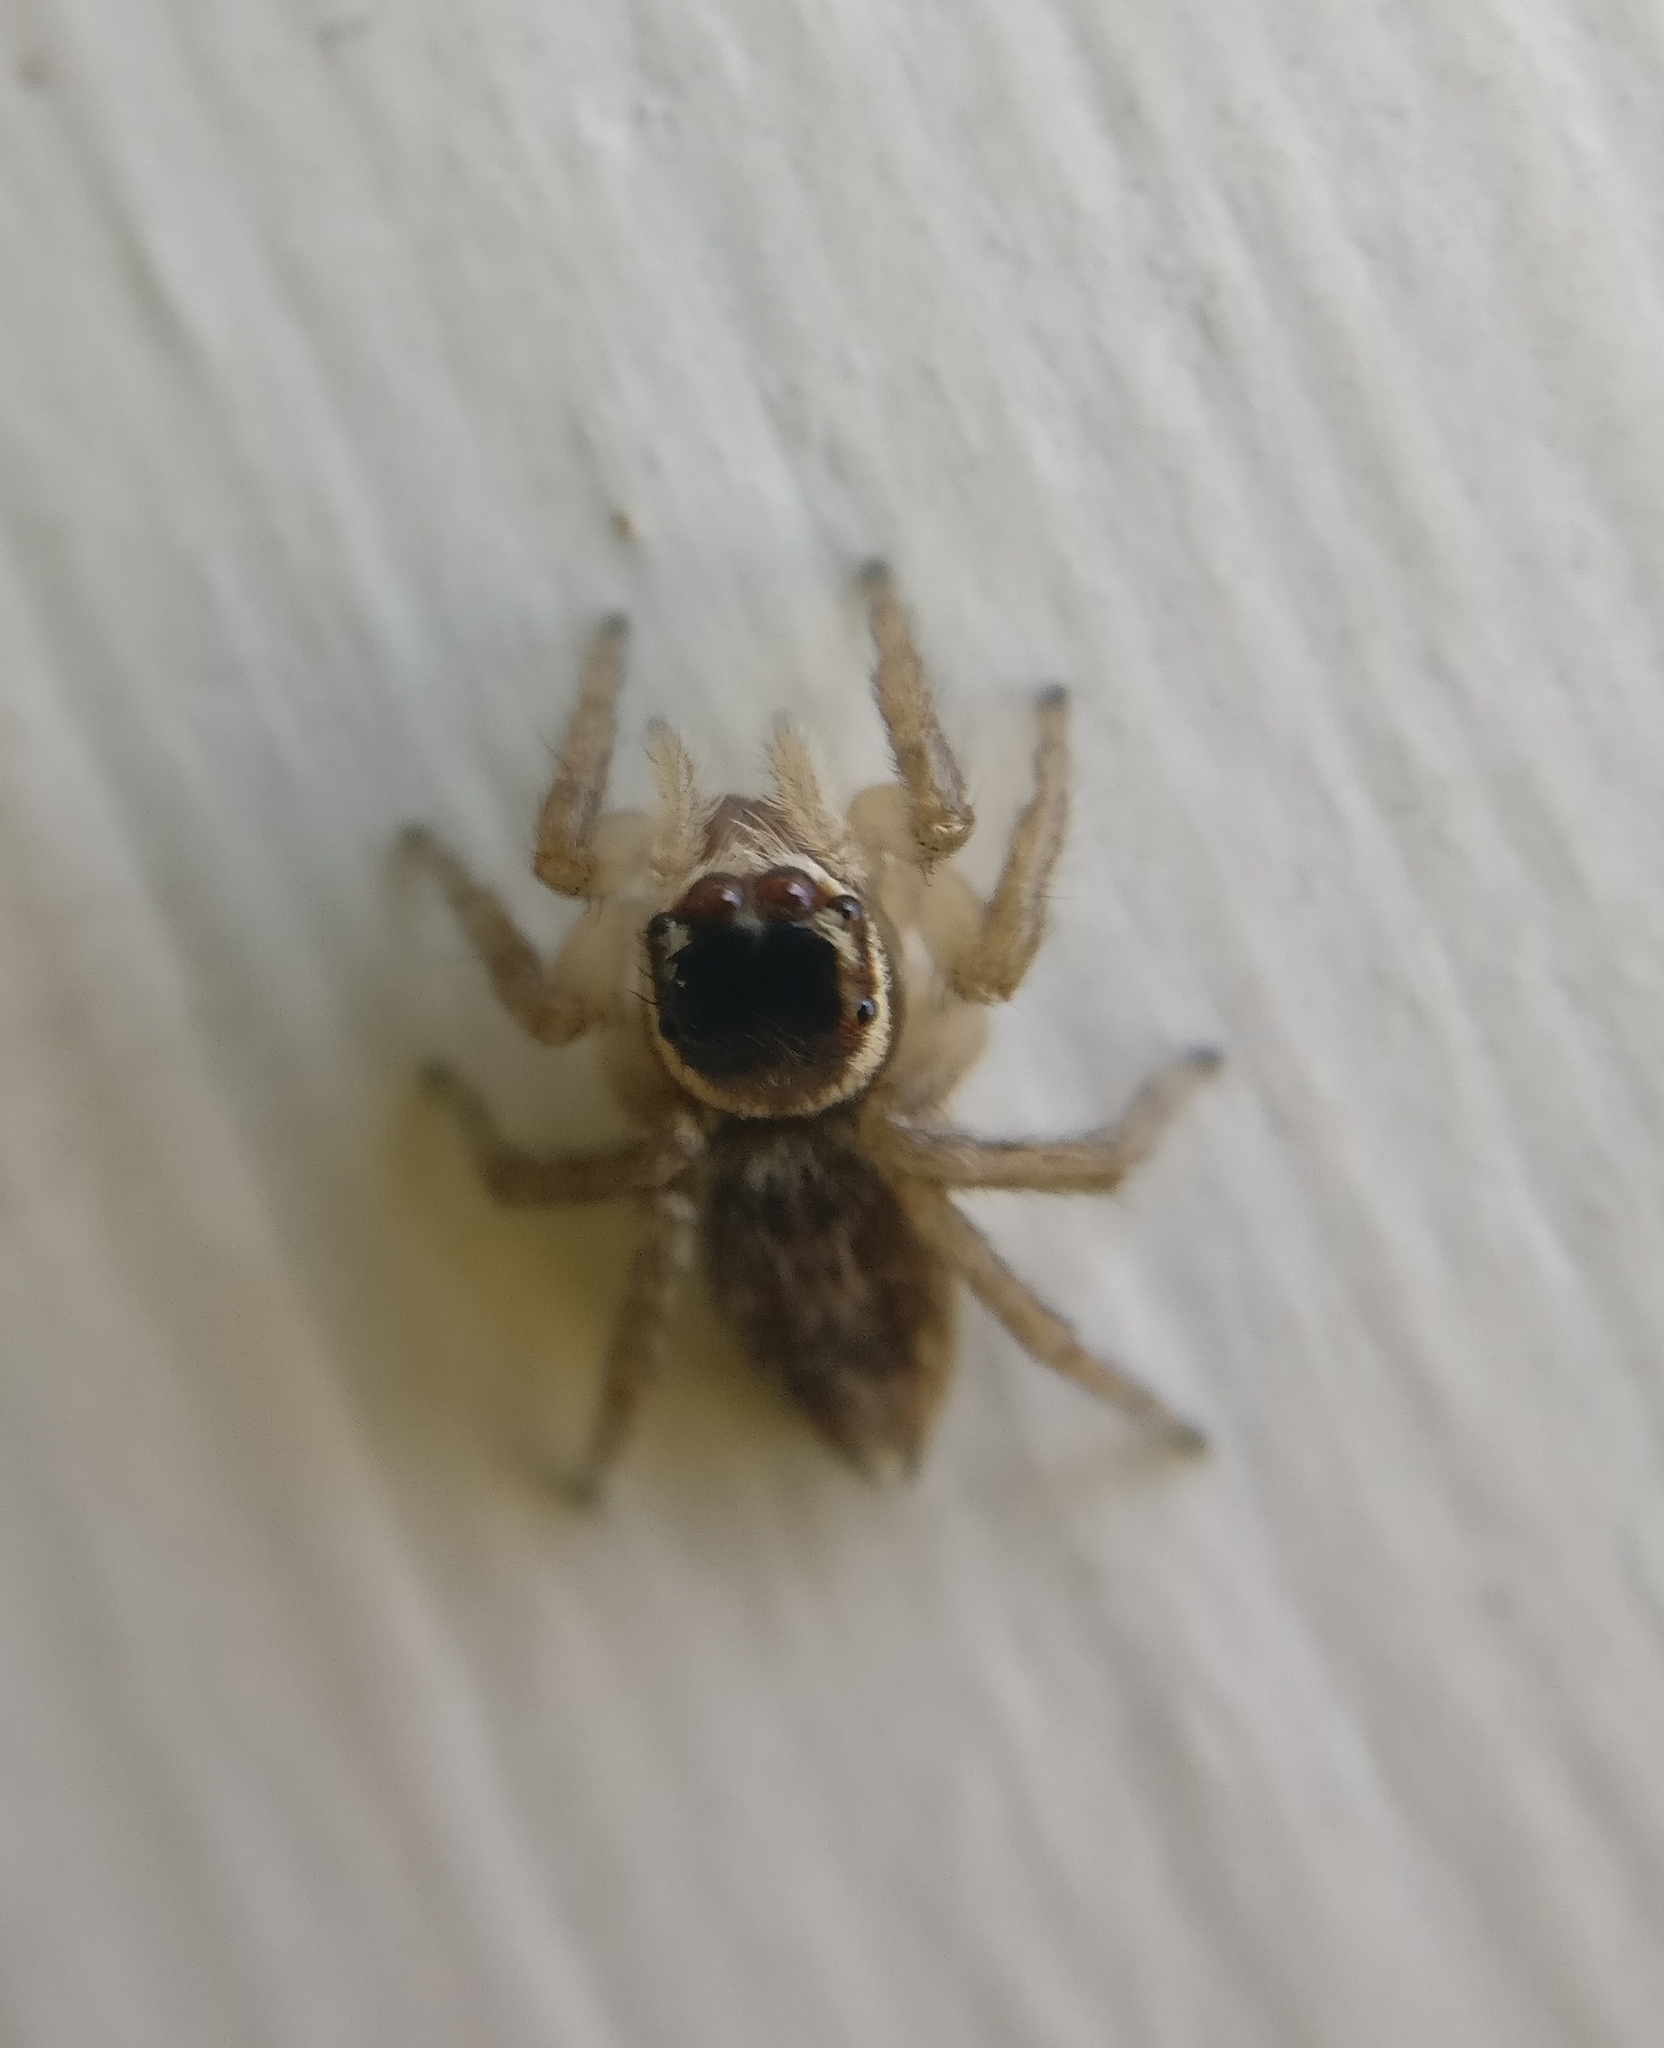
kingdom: Animalia
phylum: Arthropoda
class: Arachnida
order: Araneae
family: Salticidae
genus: Maratus
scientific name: Maratus griseus
